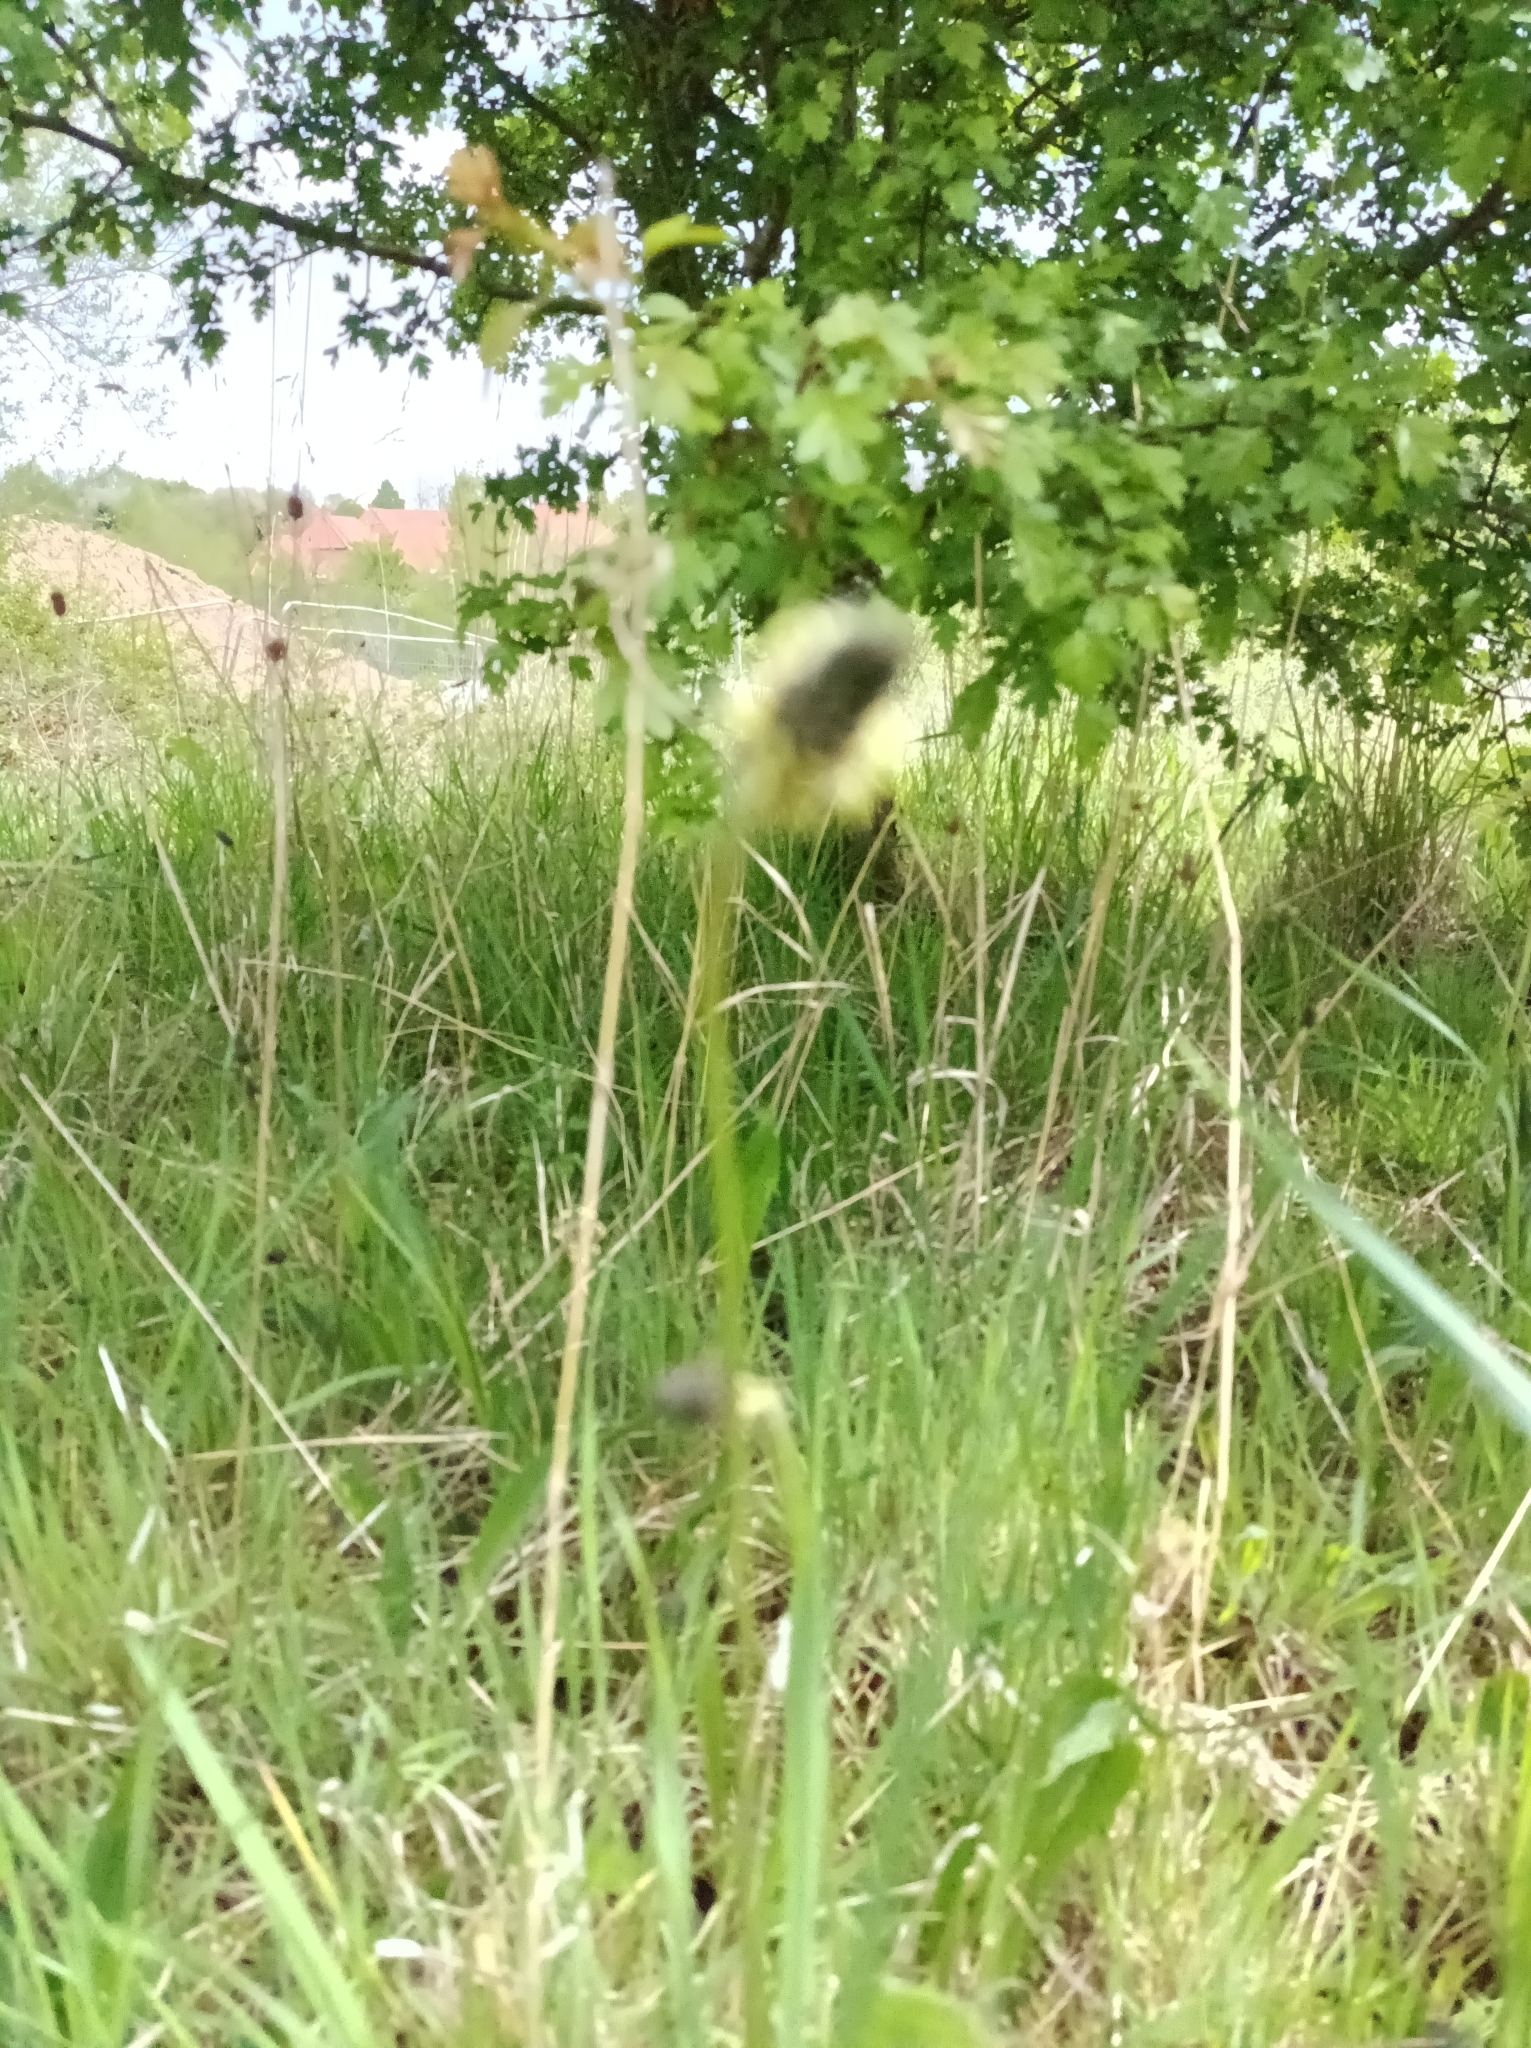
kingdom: Plantae
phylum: Tracheophyta
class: Magnoliopsida
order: Lamiales
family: Plantaginaceae
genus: Plantago
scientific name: Plantago lanceolata
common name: Ribwort plantain
